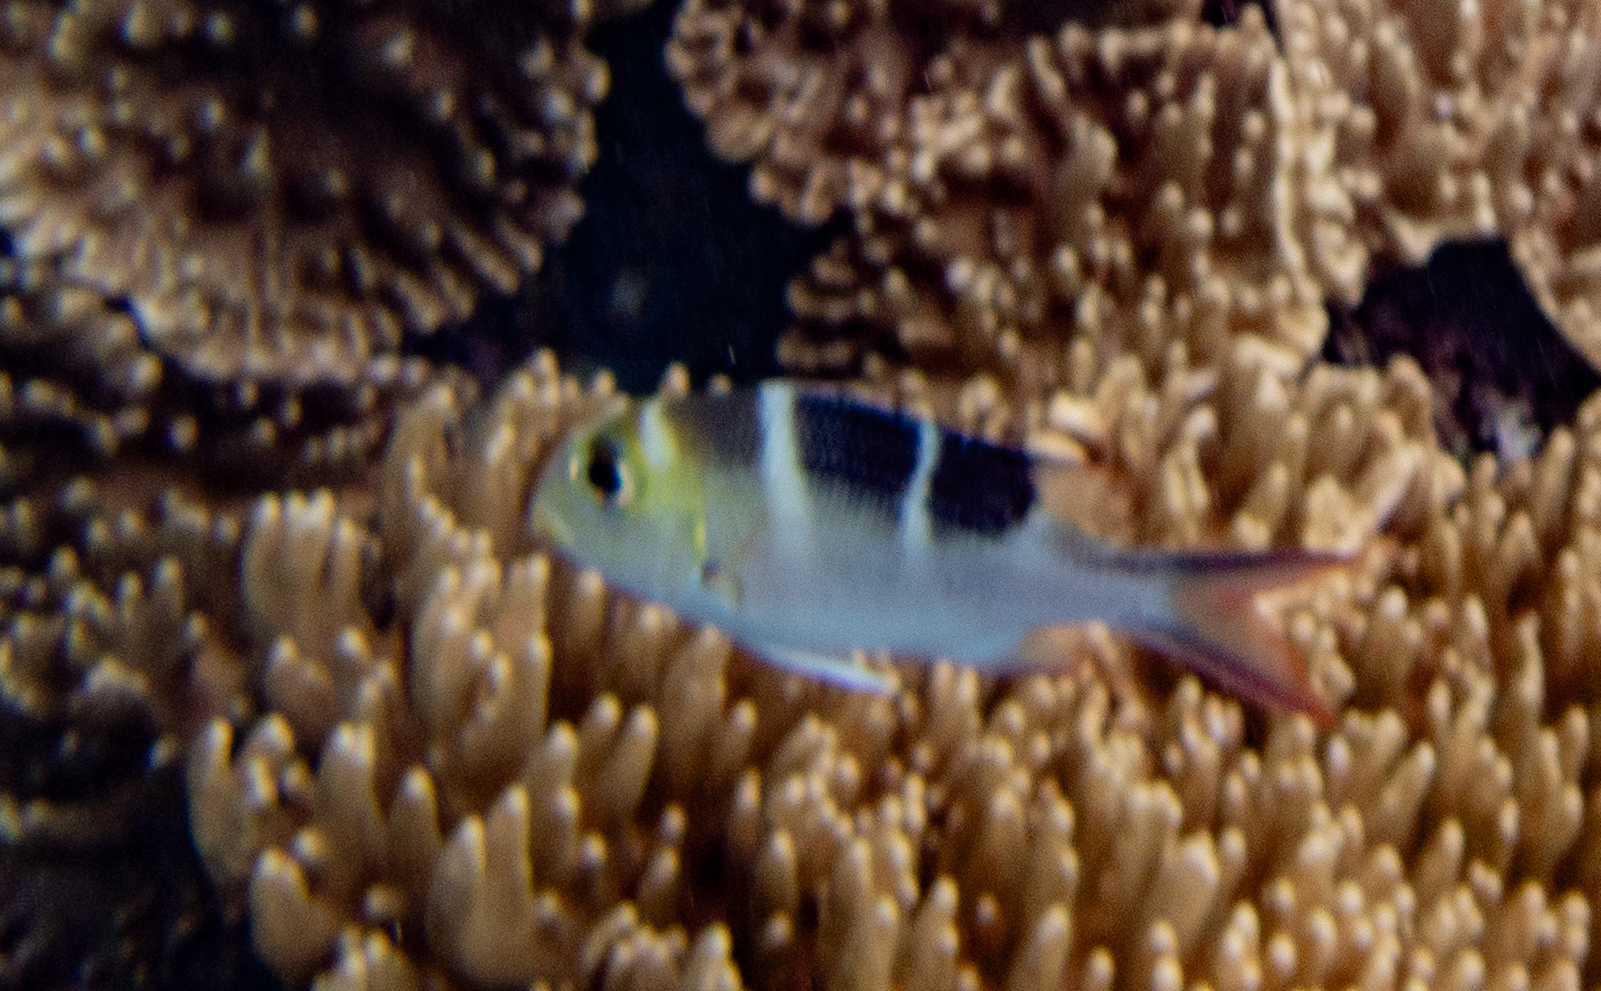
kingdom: Animalia
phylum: Chordata
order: Perciformes
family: Lethrinidae
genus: Monotaxis
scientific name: Monotaxis grandoculis
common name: Bigeye emperor
